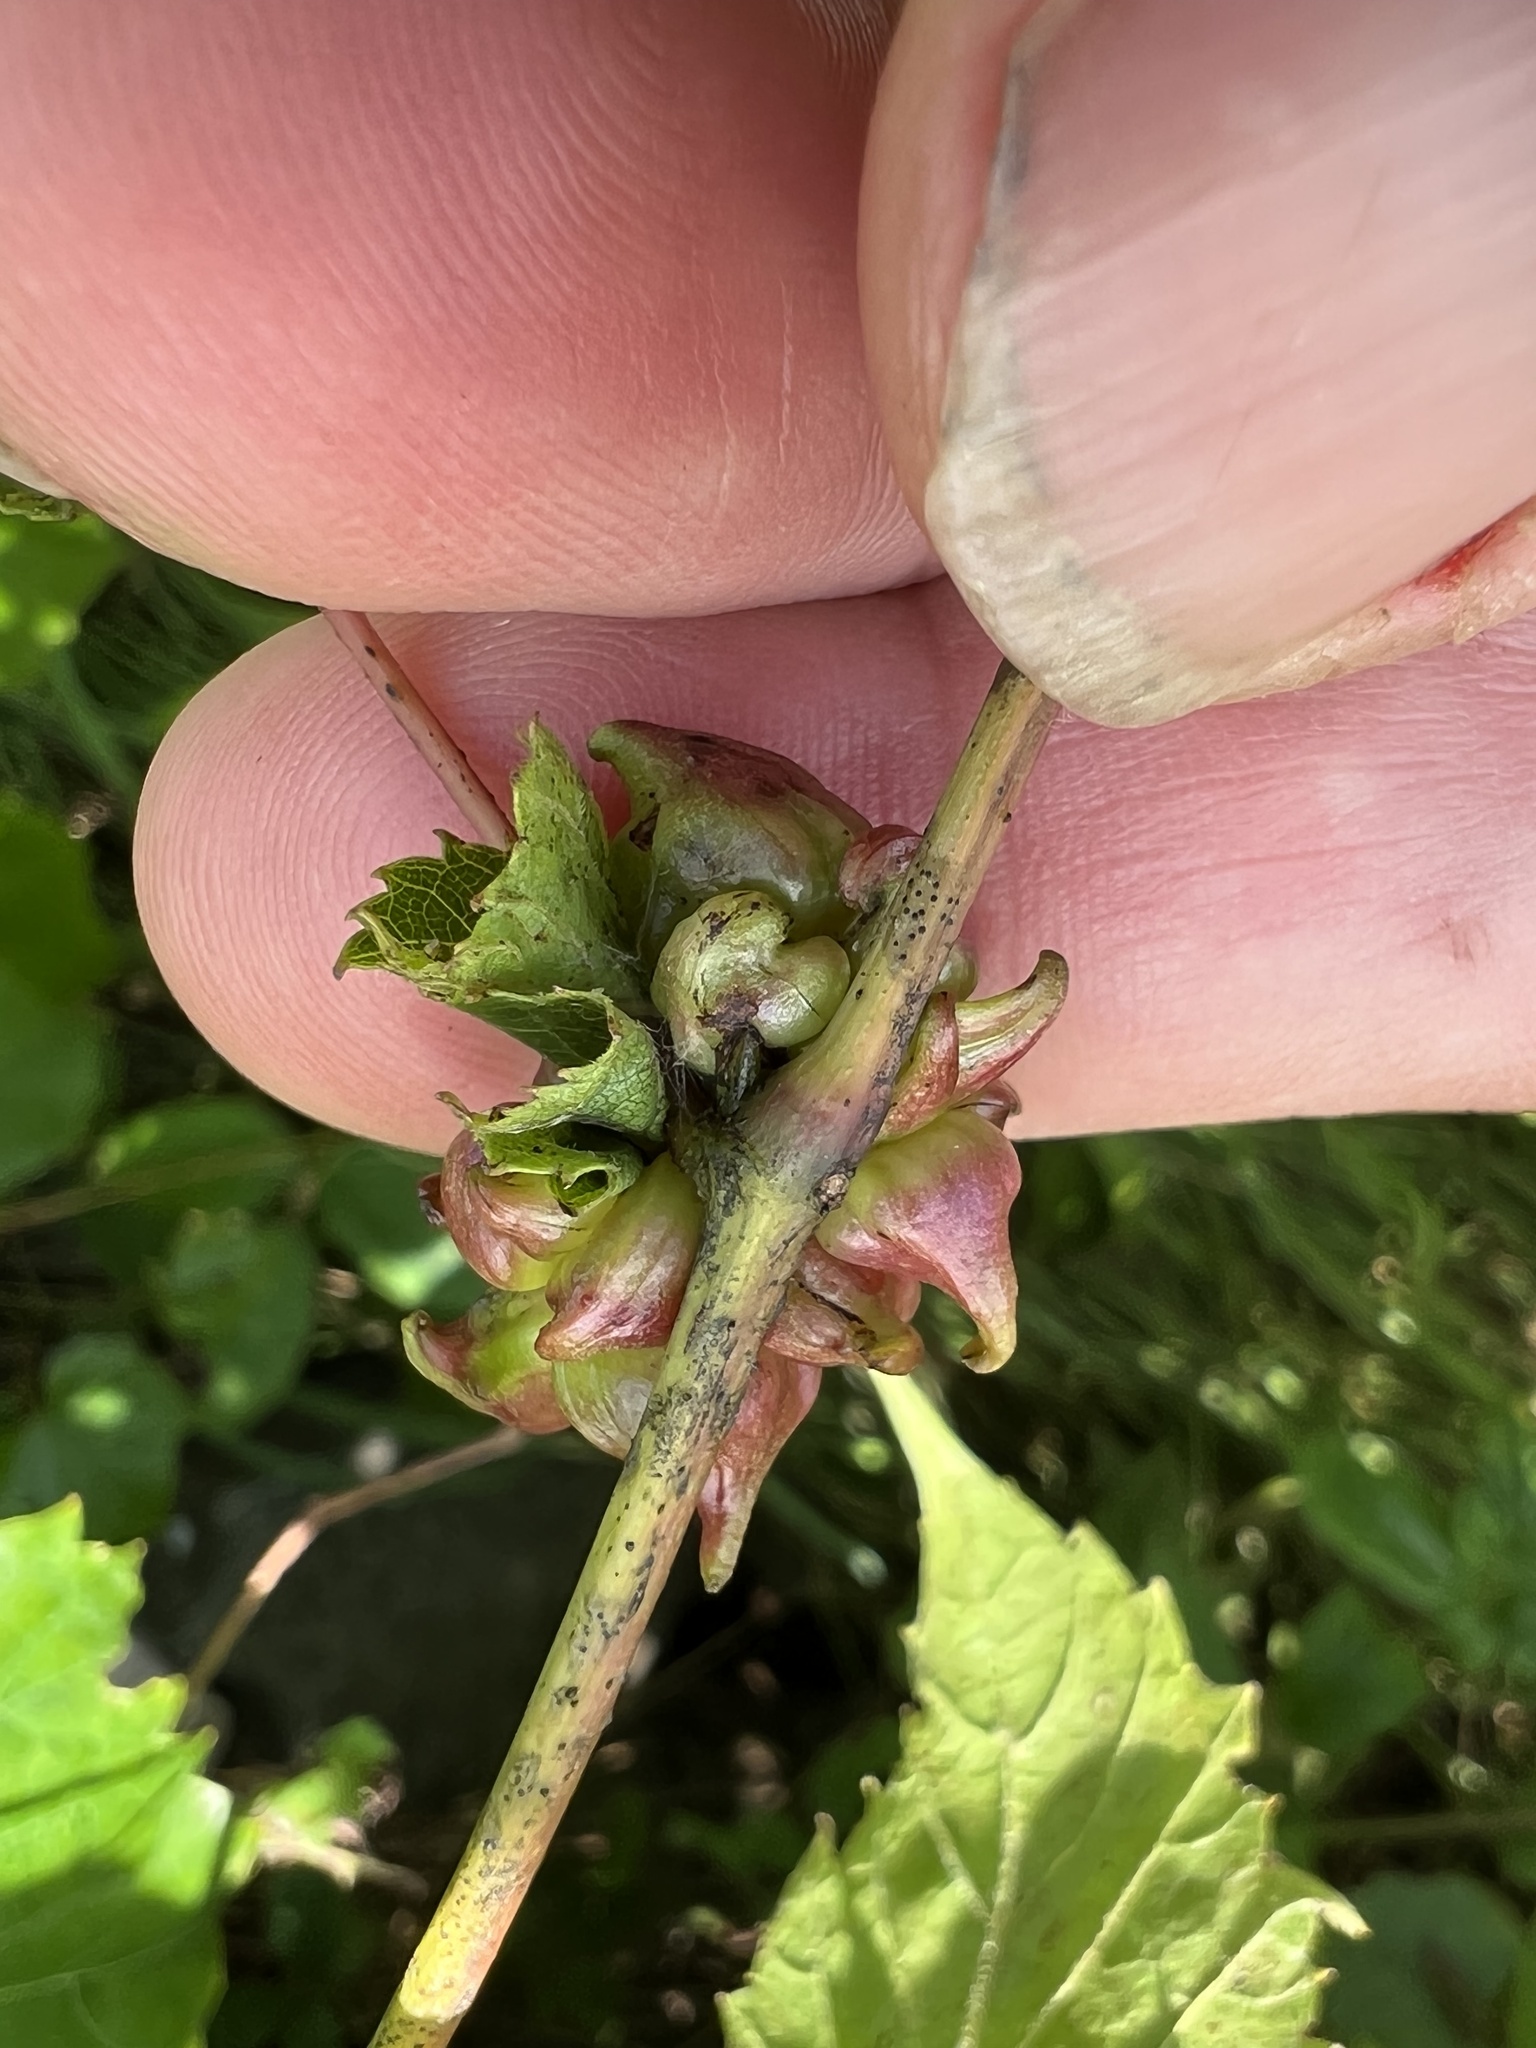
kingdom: Animalia
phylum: Arthropoda
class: Insecta
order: Diptera
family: Cecidomyiidae
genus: Ampelomyia
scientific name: Ampelomyia vitiscoryloides
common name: Grape filbert gall
